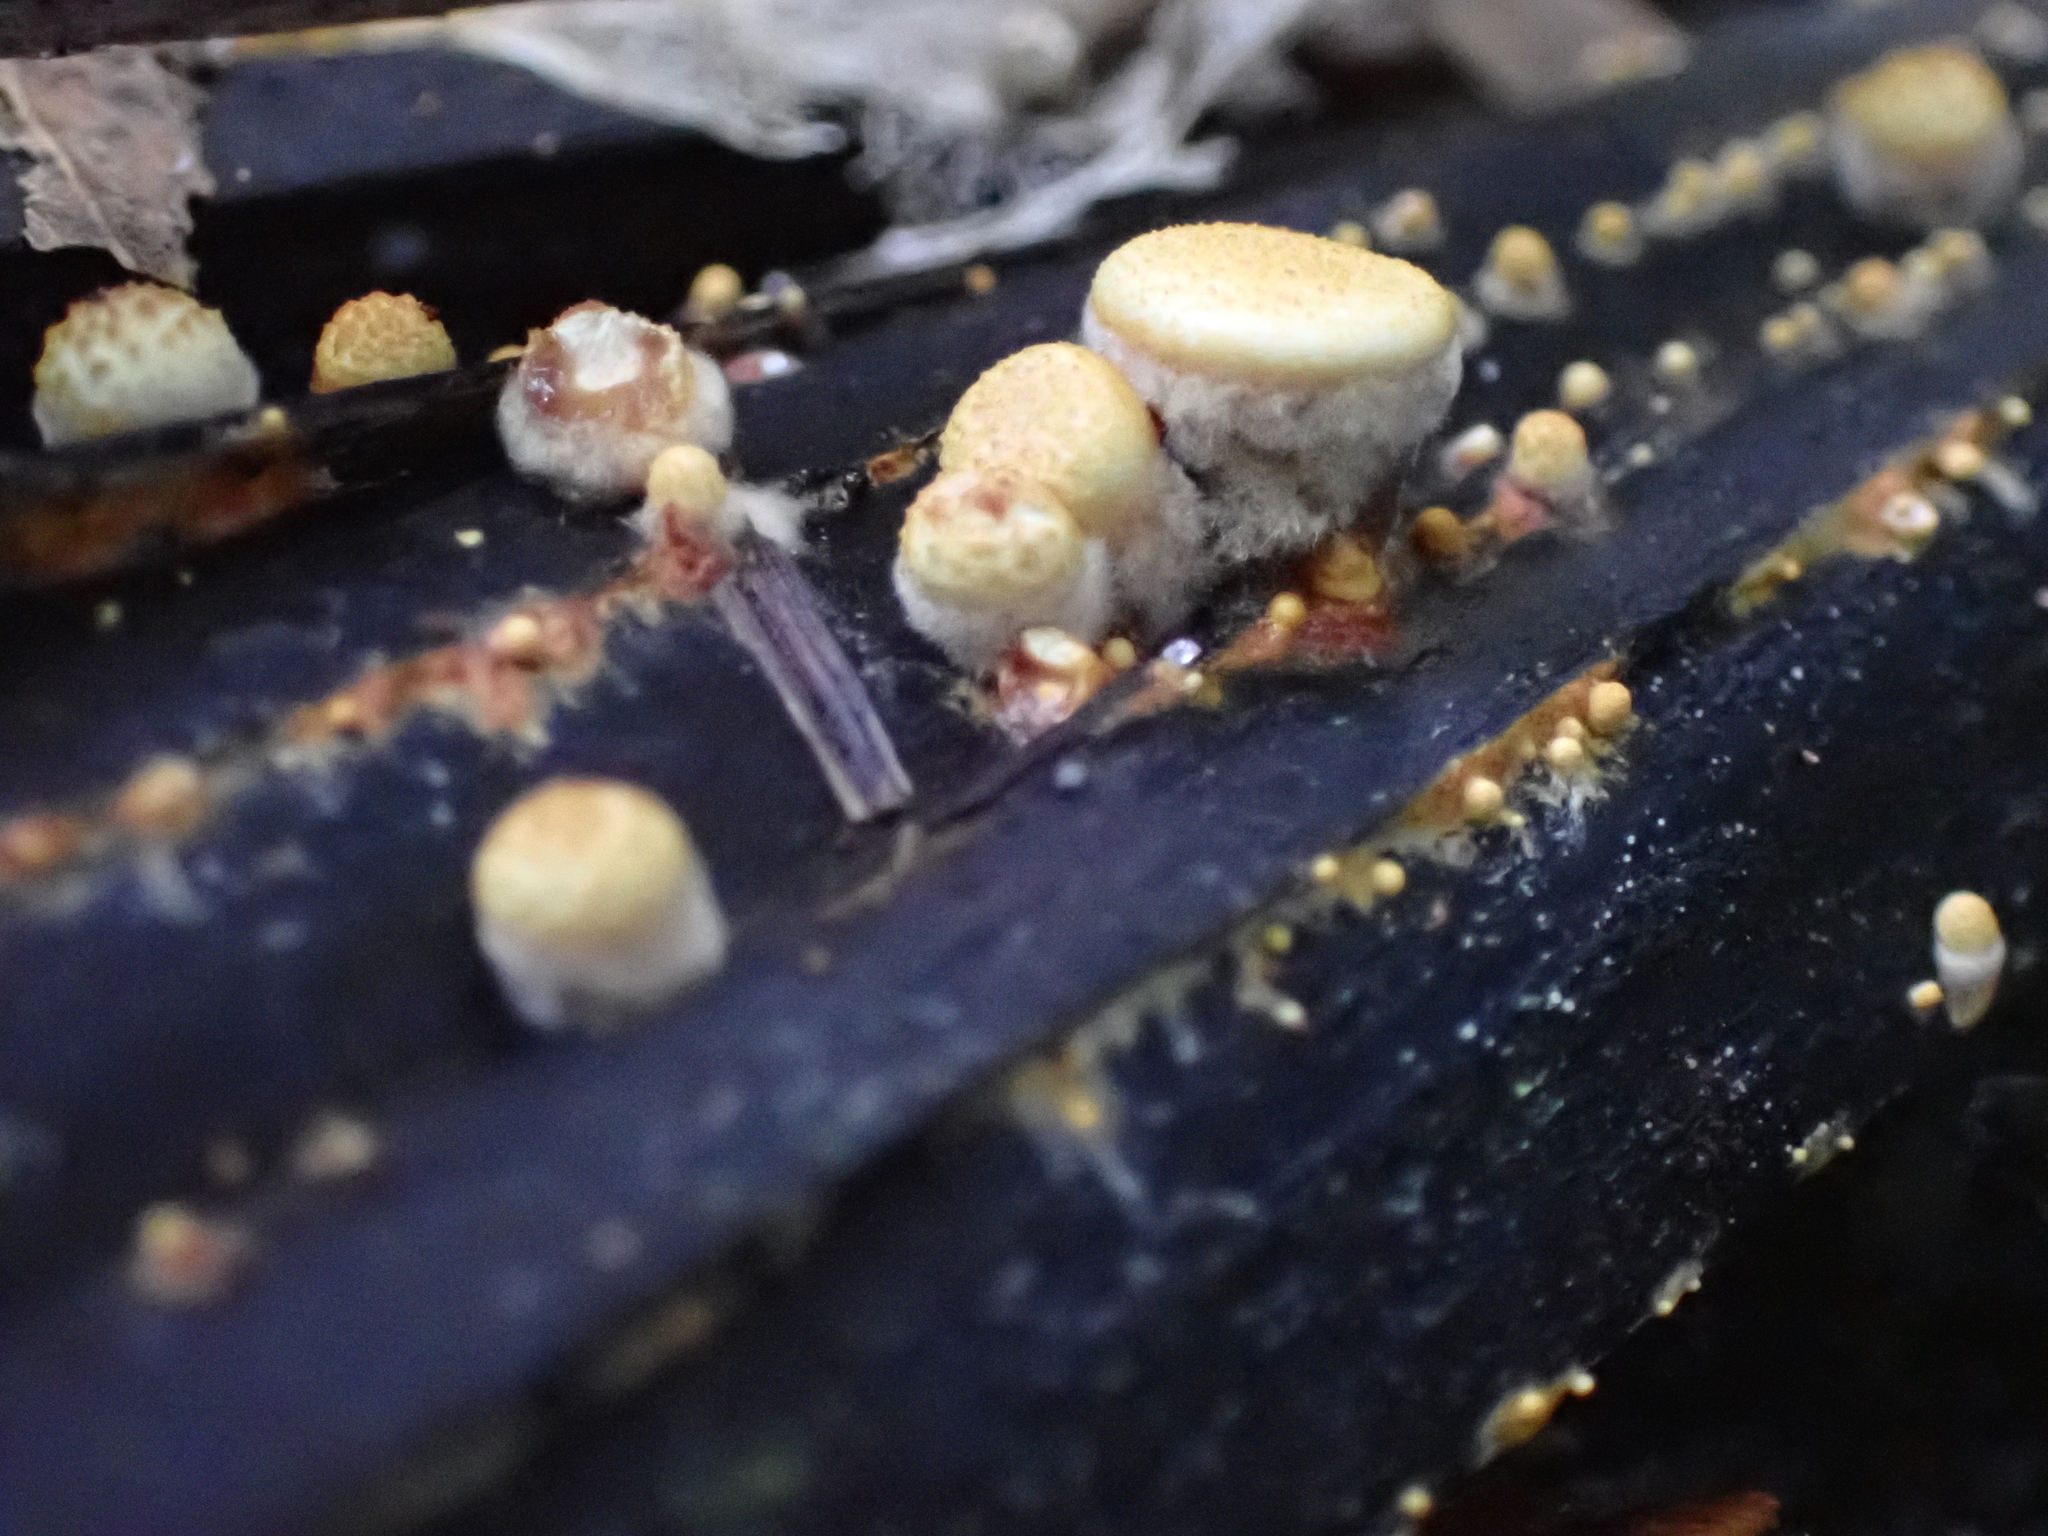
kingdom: Fungi
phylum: Basidiomycota
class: Agaricomycetes
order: Agaricales
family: Nidulariaceae
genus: Crucibulum
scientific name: Crucibulum simile
